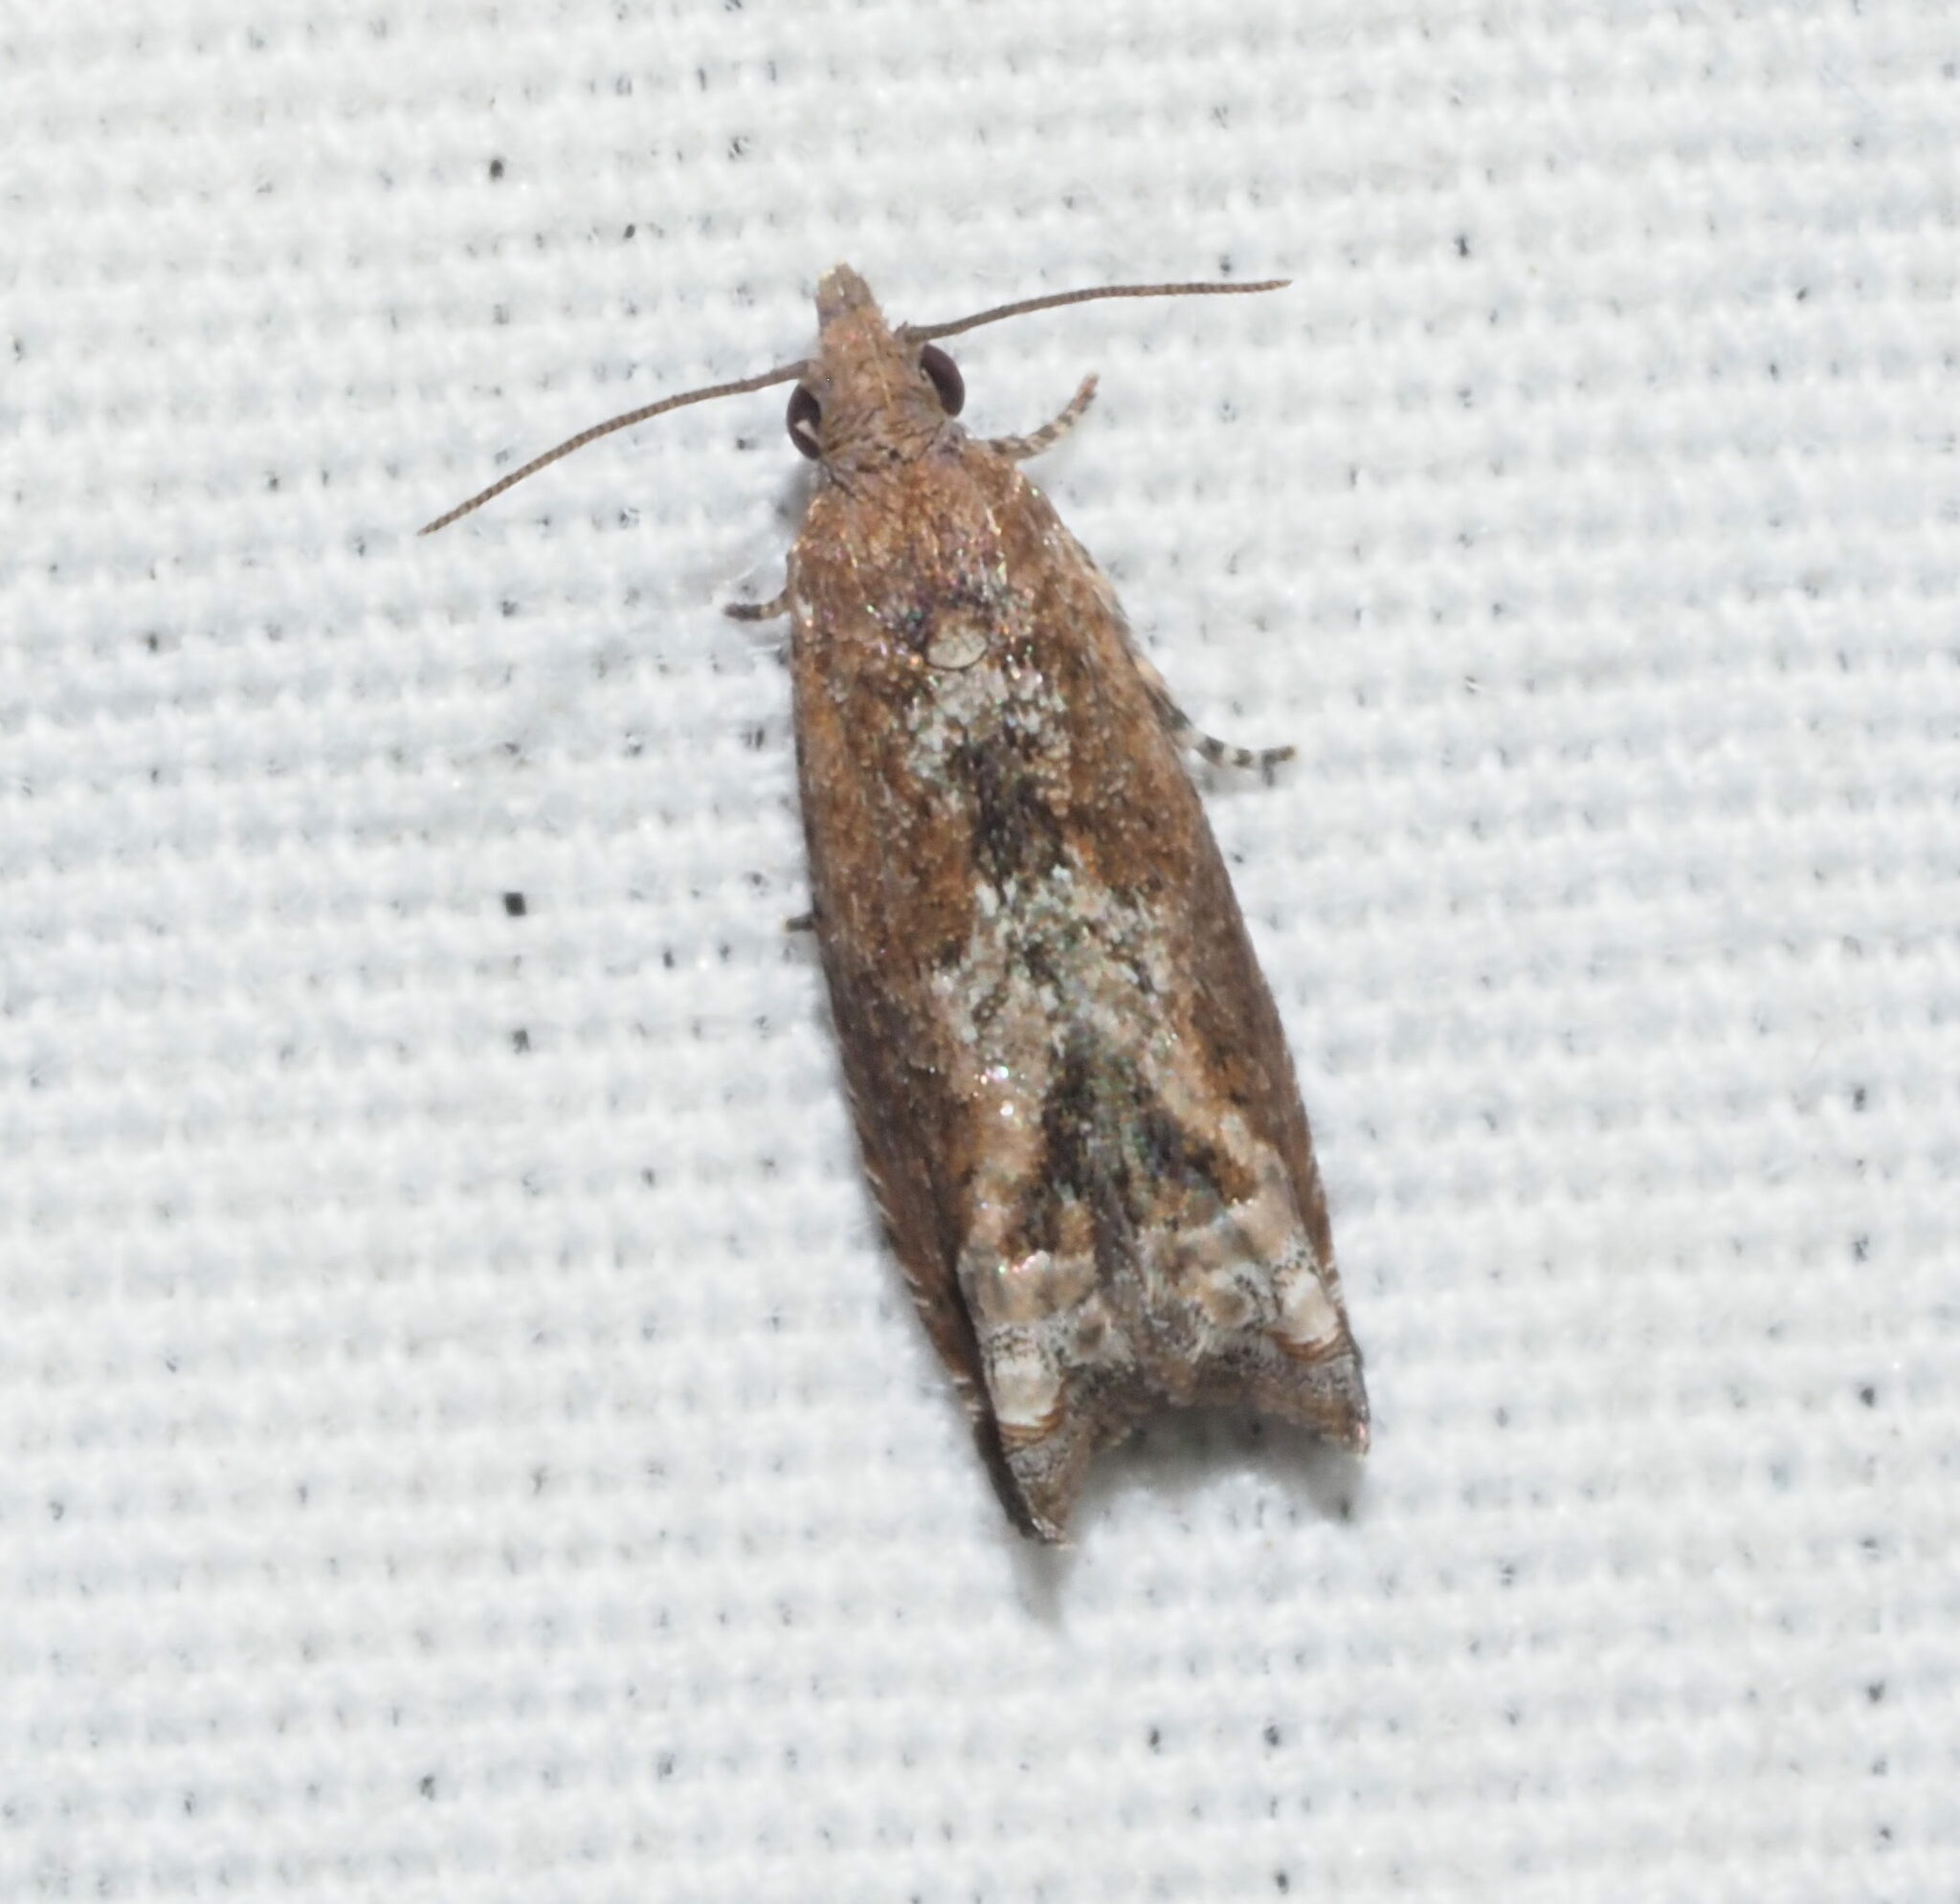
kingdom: Animalia
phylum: Arthropoda
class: Insecta
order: Lepidoptera
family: Tortricidae
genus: Crocidosema
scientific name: Crocidosema lantana
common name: Lantana flower-cluster moth
